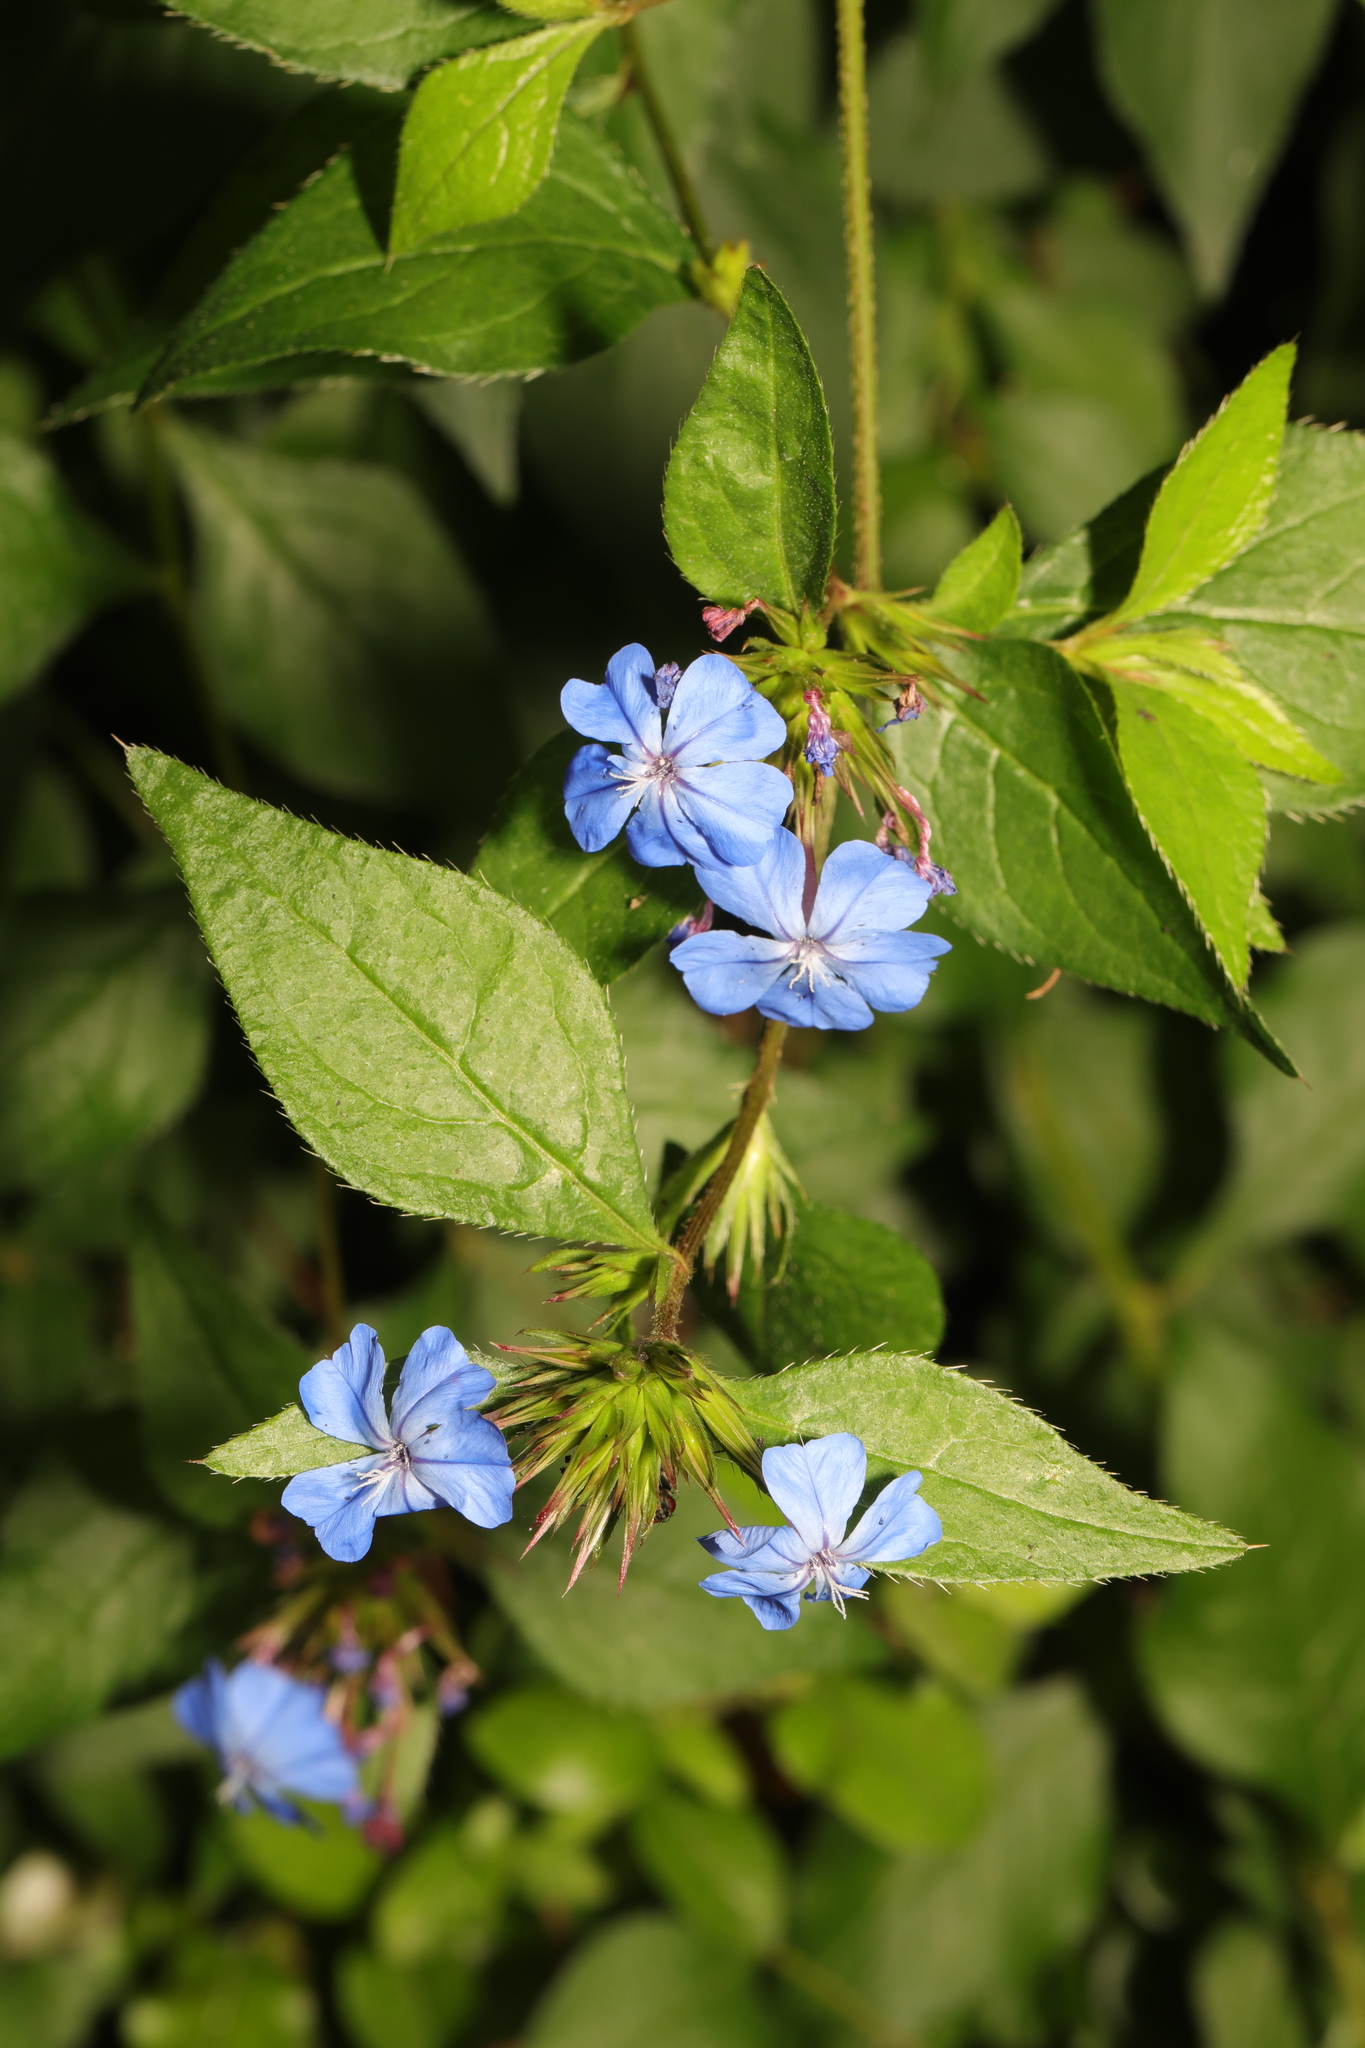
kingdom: Plantae
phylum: Tracheophyta
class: Magnoliopsida
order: Caryophyllales
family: Plumbaginaceae
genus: Ceratostigma
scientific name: Ceratostigma plumbaginoides
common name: Blue leadwood
